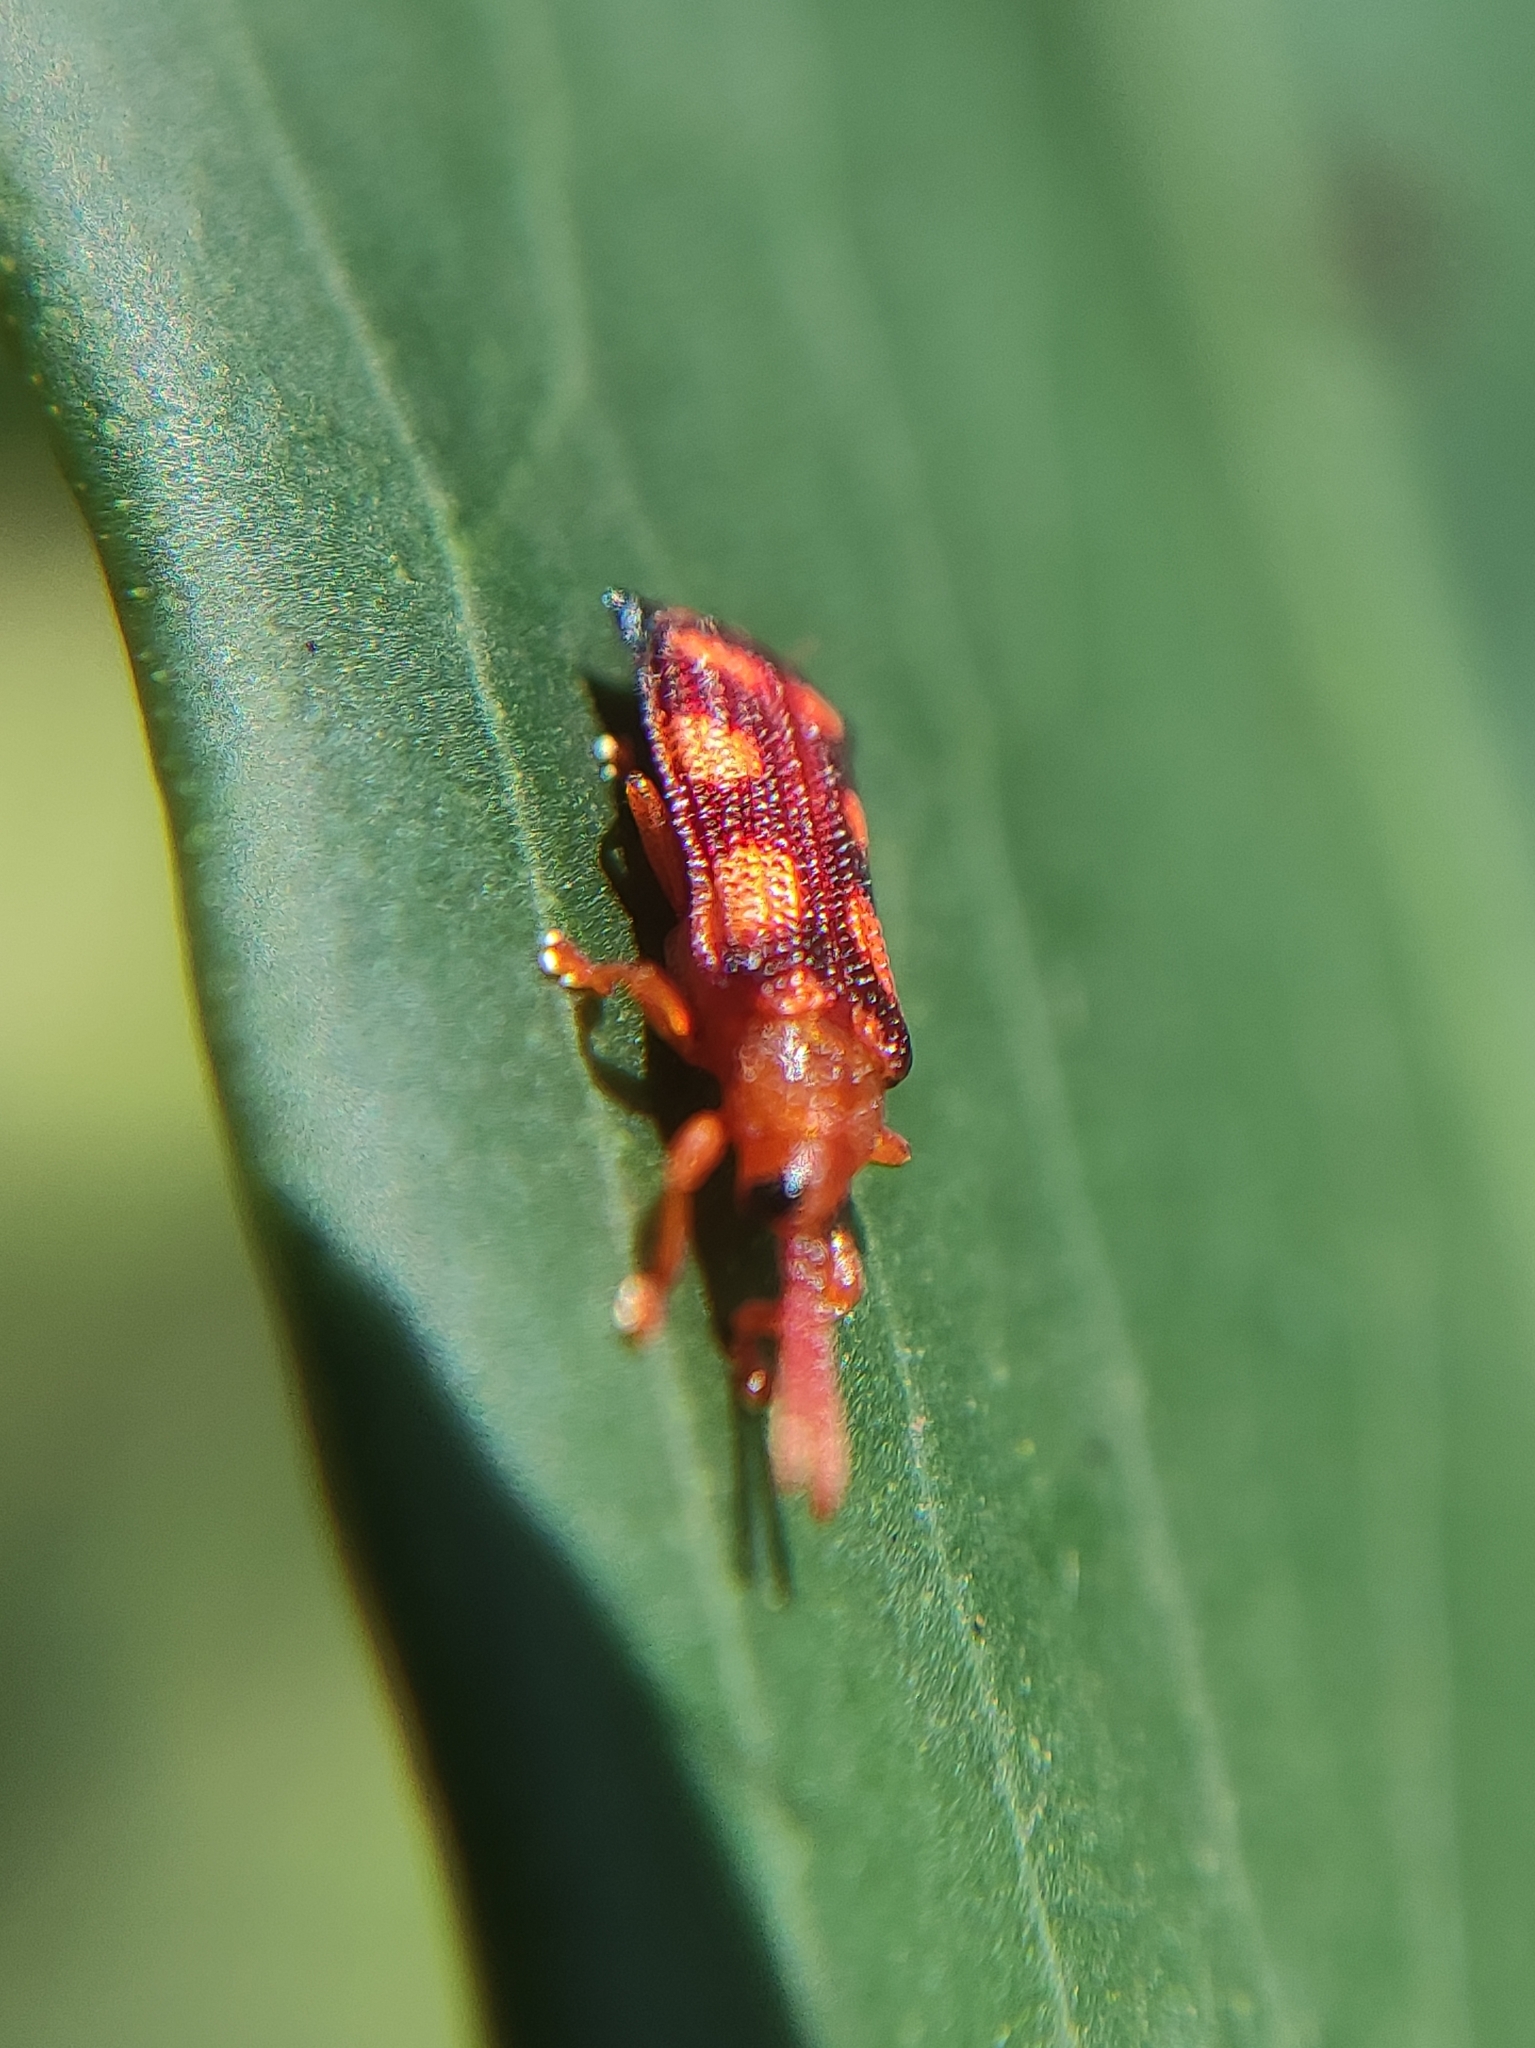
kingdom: Animalia
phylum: Arthropoda
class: Insecta
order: Coleoptera
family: Chrysomelidae
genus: Octuroplata
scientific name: Octuroplata octopustulata
